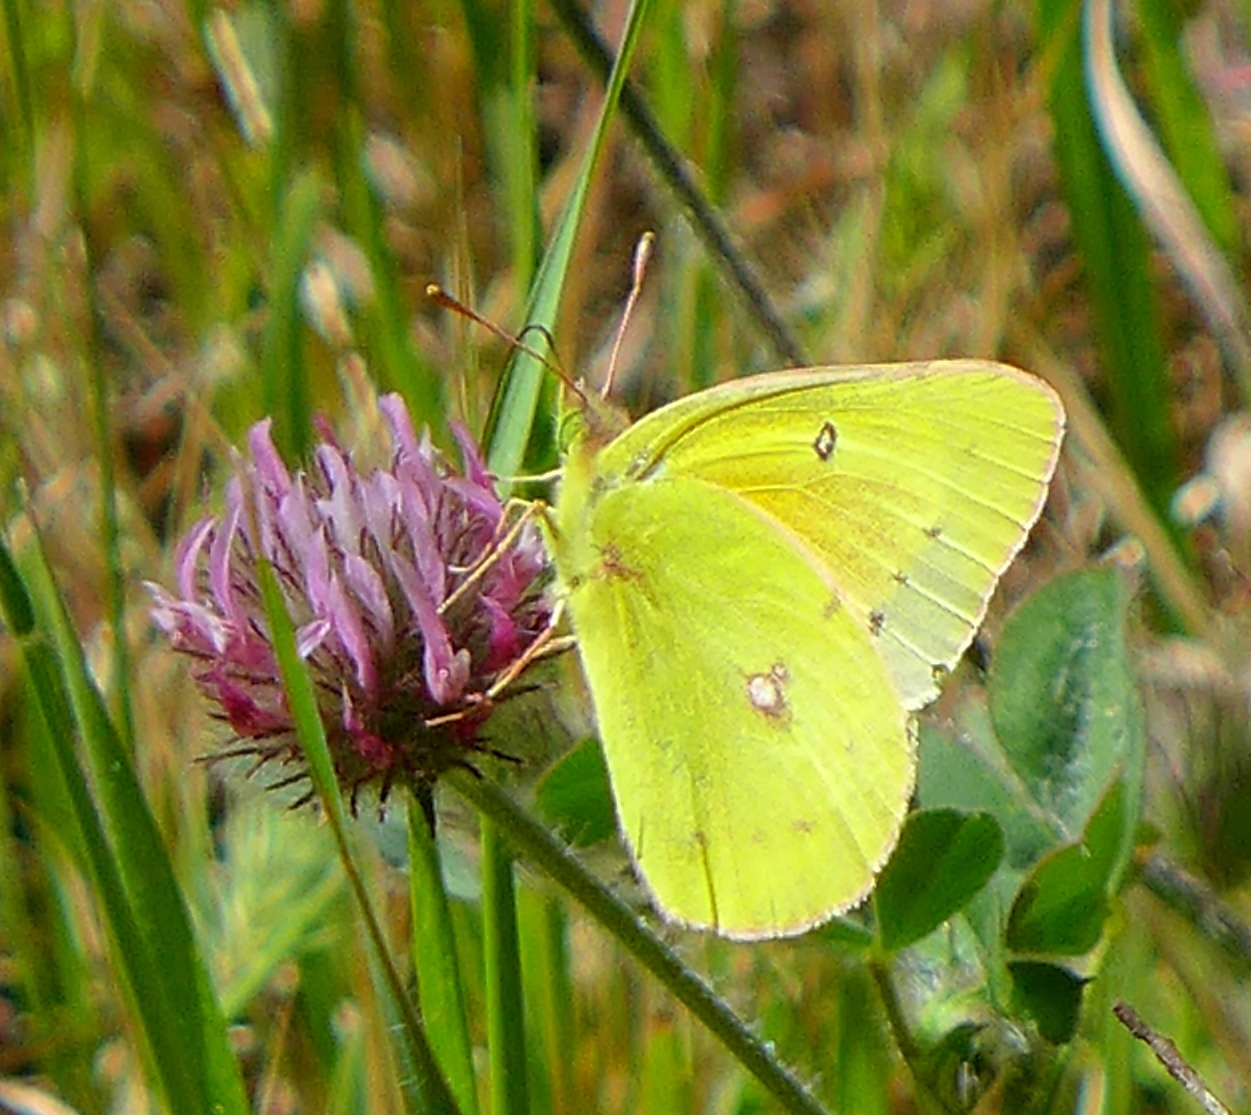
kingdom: Animalia
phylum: Arthropoda
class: Insecta
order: Lepidoptera
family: Pieridae
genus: Colias
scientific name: Colias eurytheme
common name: Alfalfa butterfly
